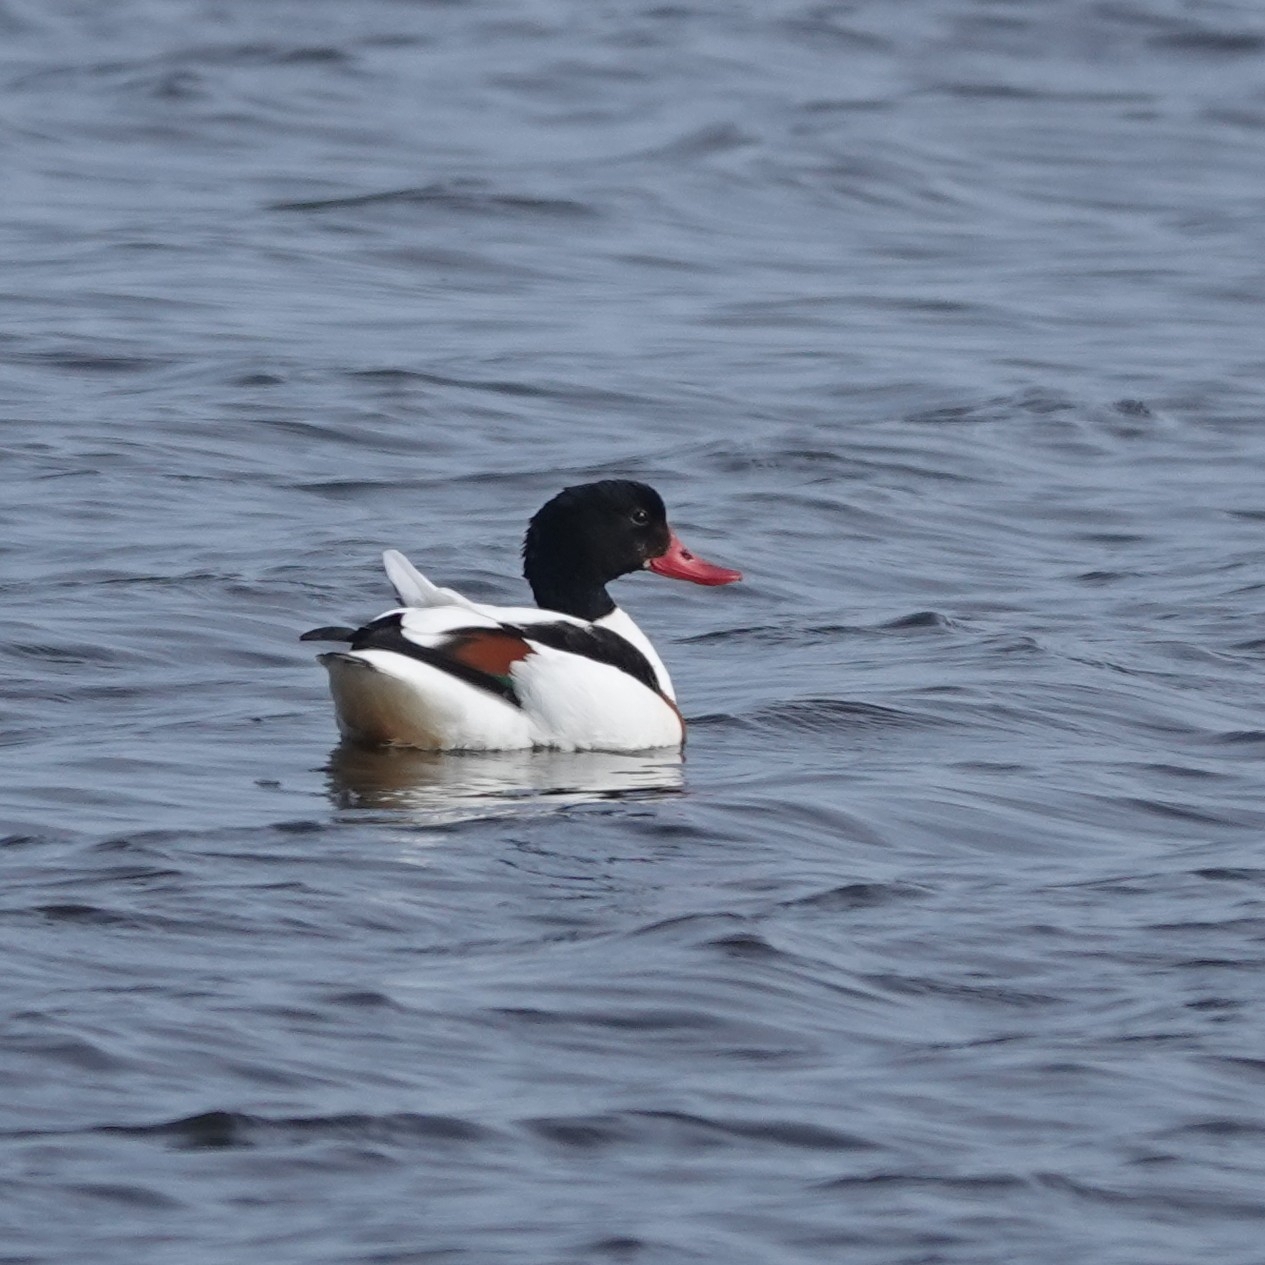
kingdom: Animalia
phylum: Chordata
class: Aves
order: Anseriformes
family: Anatidae
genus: Tadorna
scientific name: Tadorna tadorna
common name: Common shelduck
